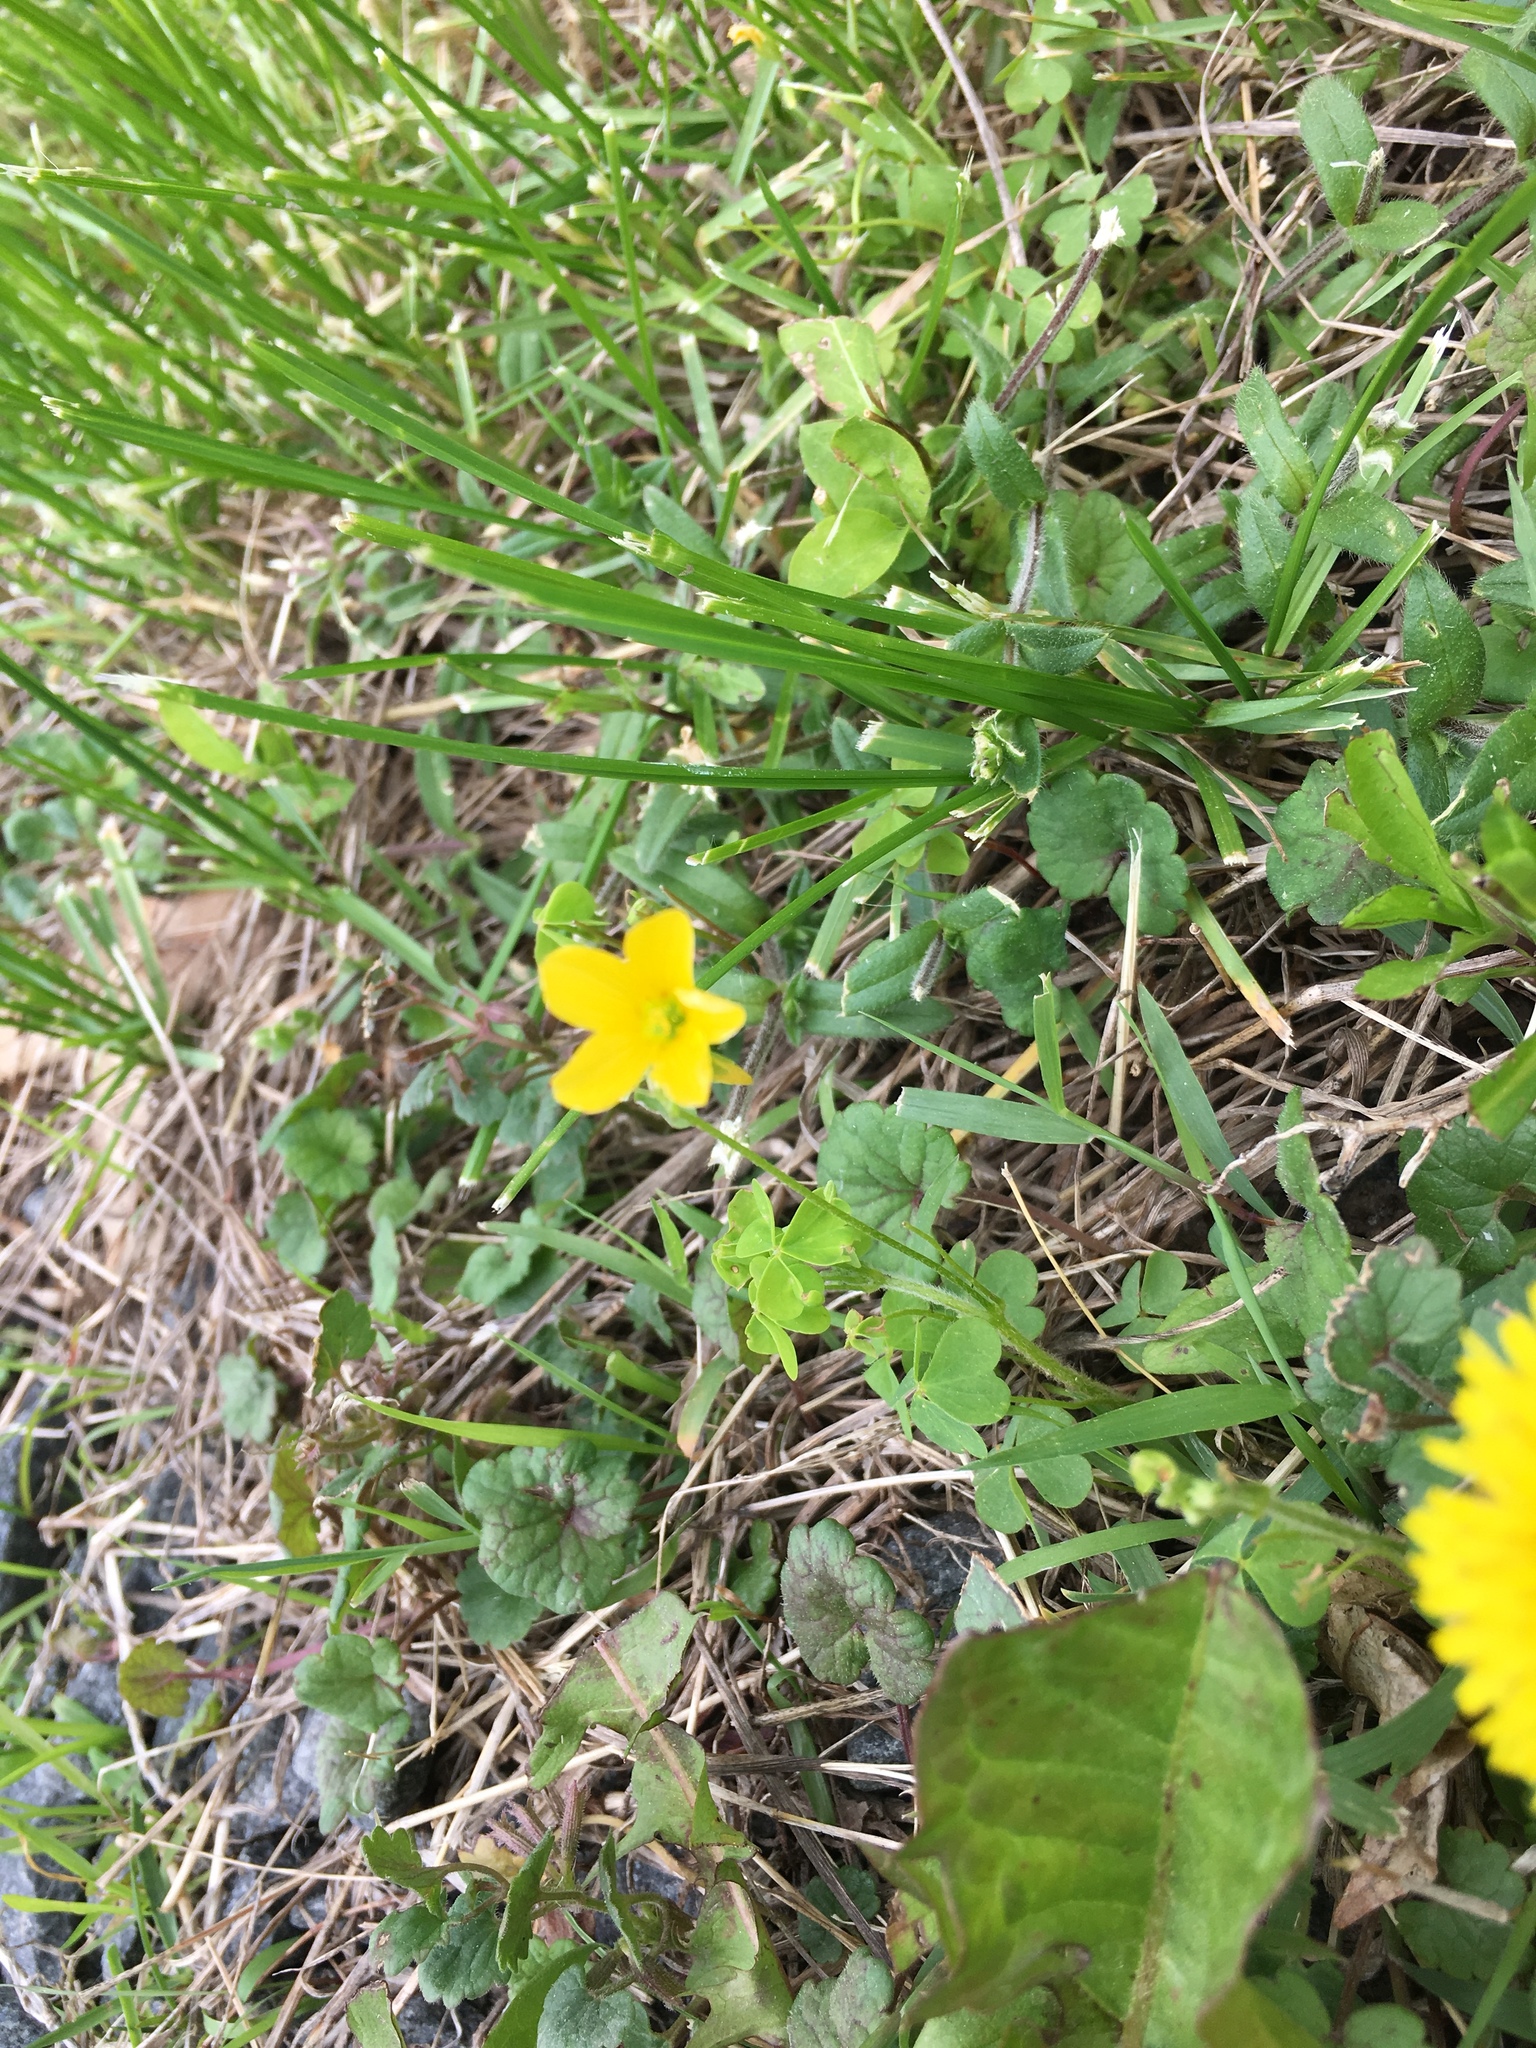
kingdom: Plantae
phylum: Tracheophyta
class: Magnoliopsida
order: Oxalidales
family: Oxalidaceae
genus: Oxalis
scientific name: Oxalis stricta
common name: Upright yellow-sorrel
